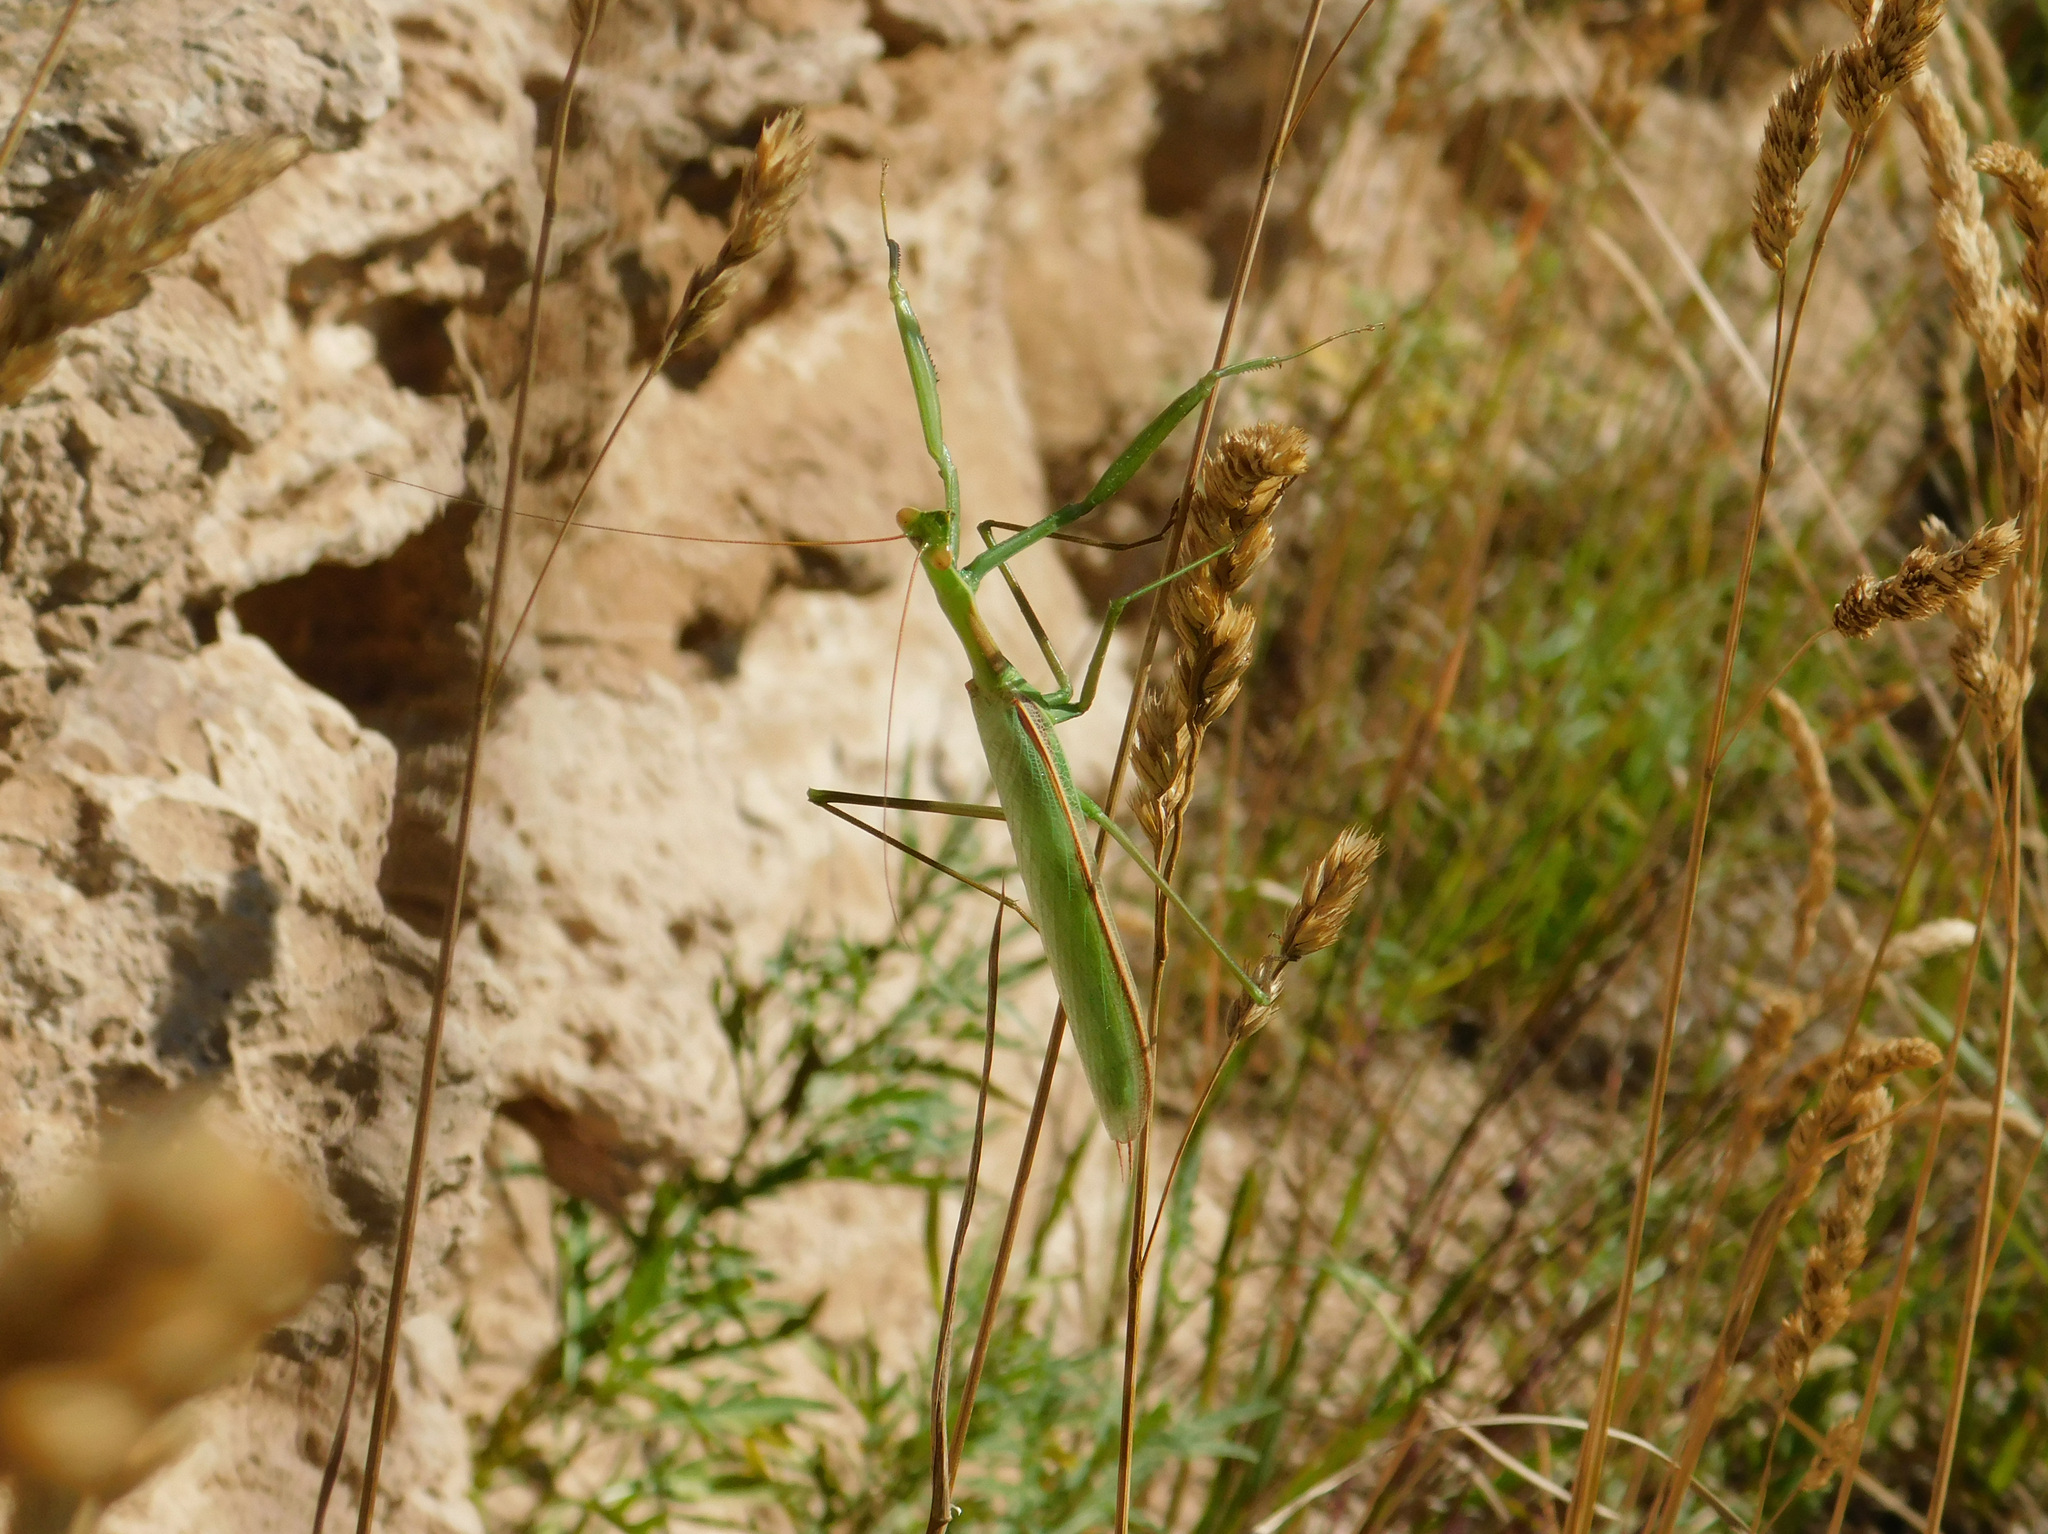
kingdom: Animalia
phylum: Arthropoda
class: Insecta
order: Mantodea
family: Coptopterygidae
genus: Coptopteryx
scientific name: Coptopteryx argentina
